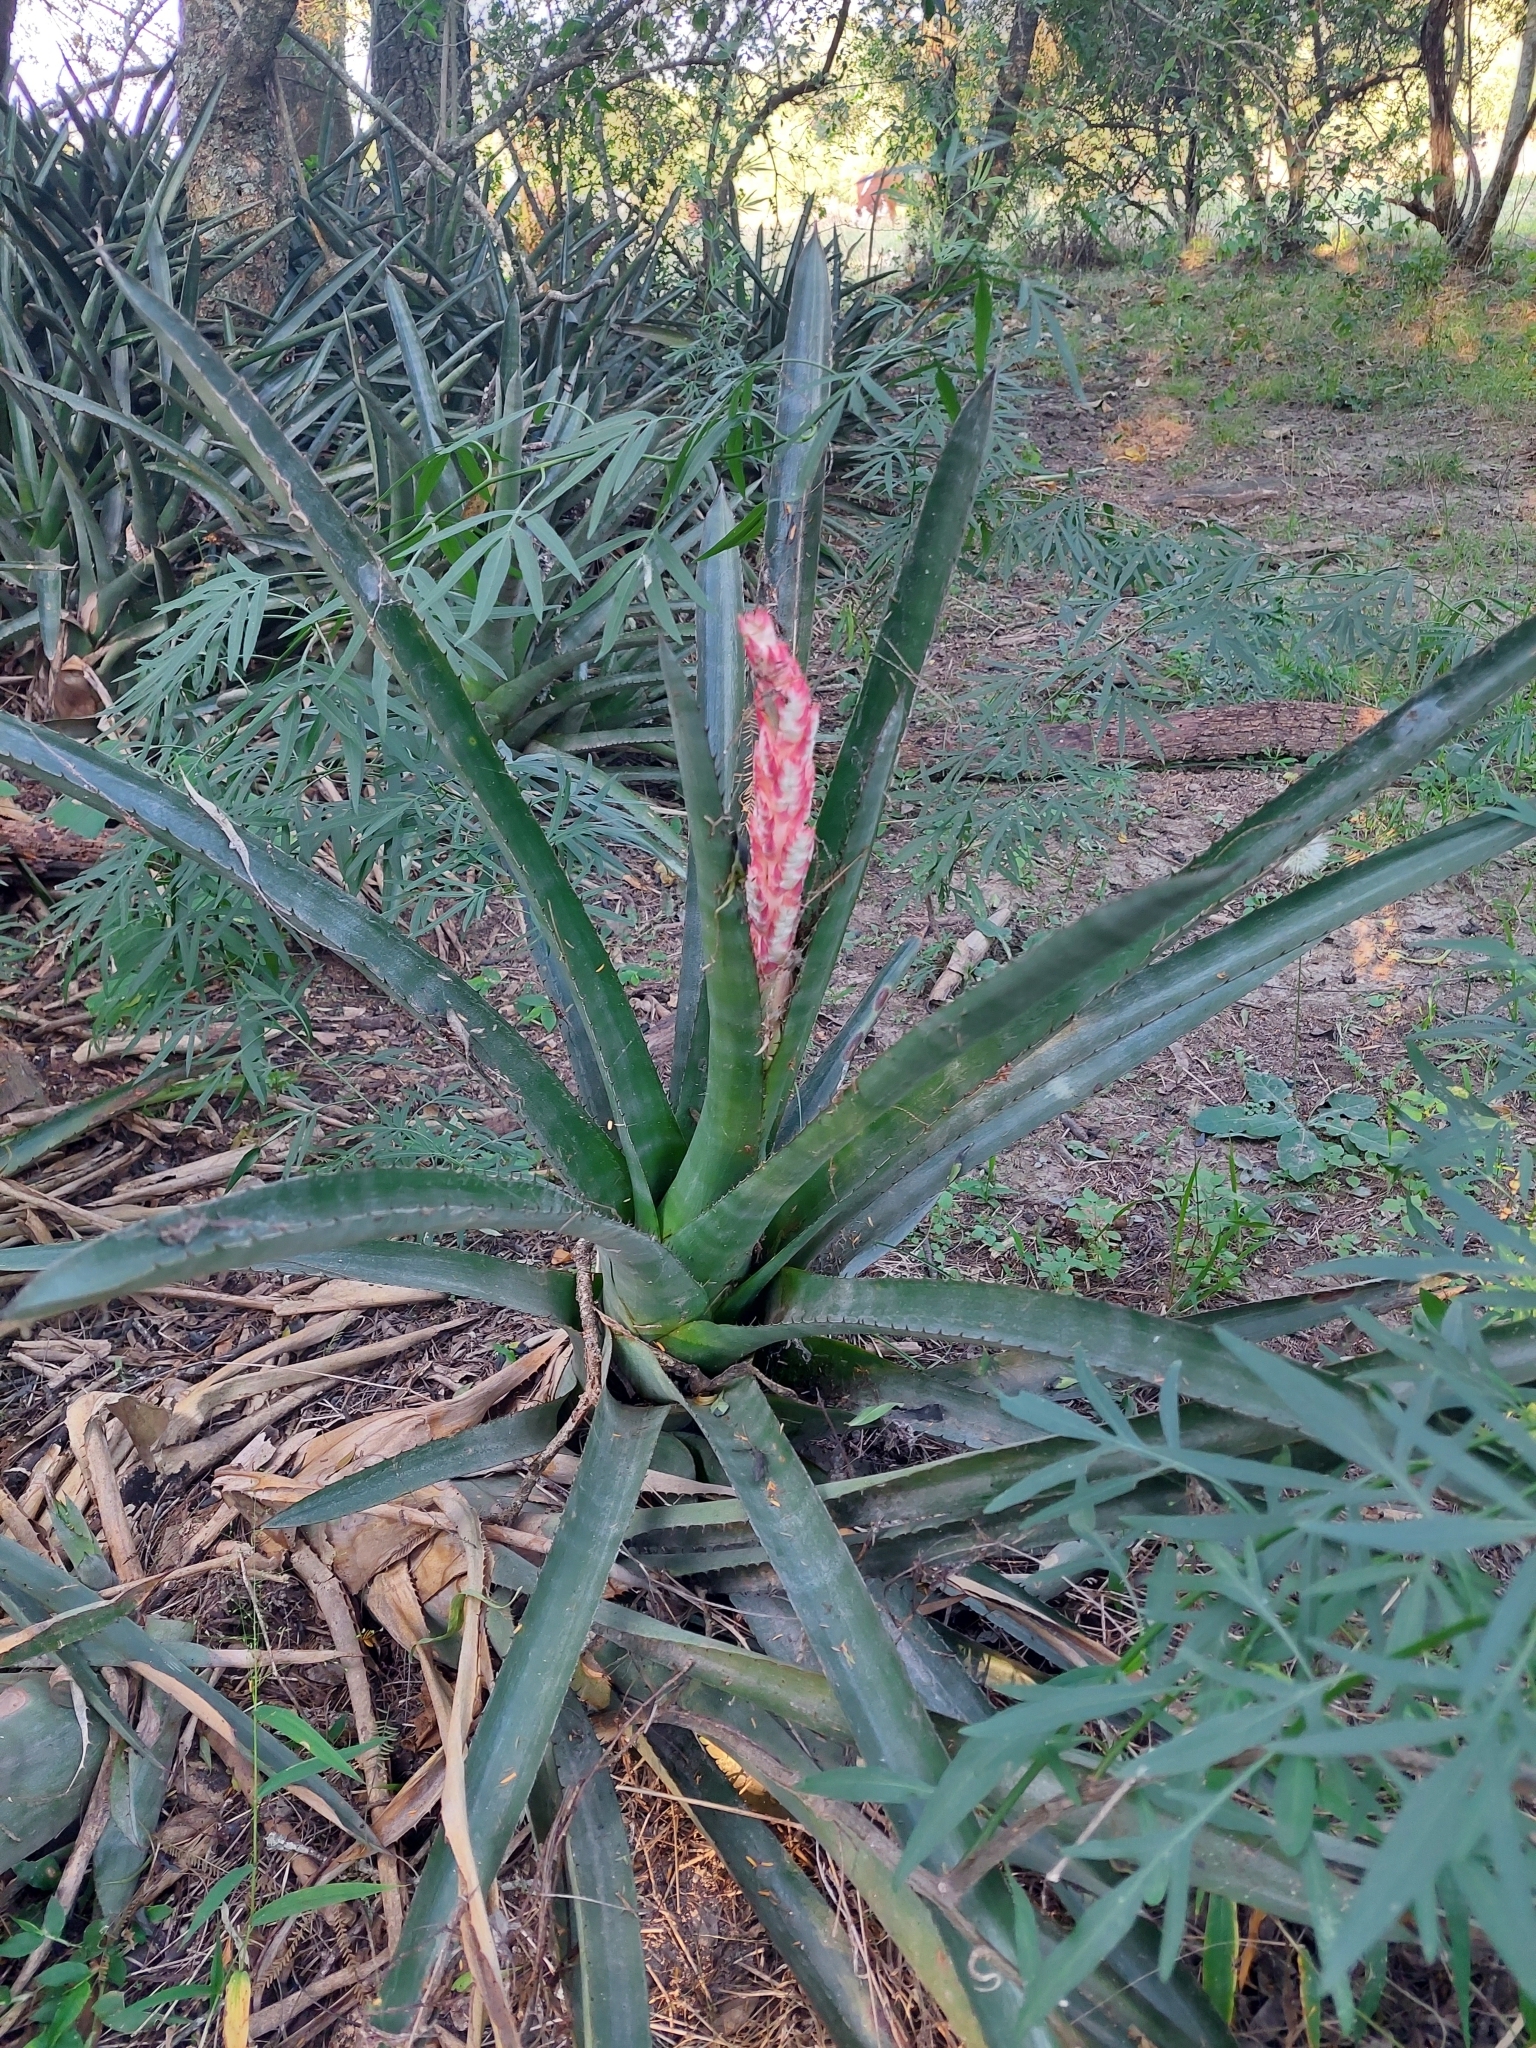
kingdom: Plantae
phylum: Tracheophyta
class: Liliopsida
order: Poales
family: Bromeliaceae
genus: Aechmea
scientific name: Aechmea distichantha
